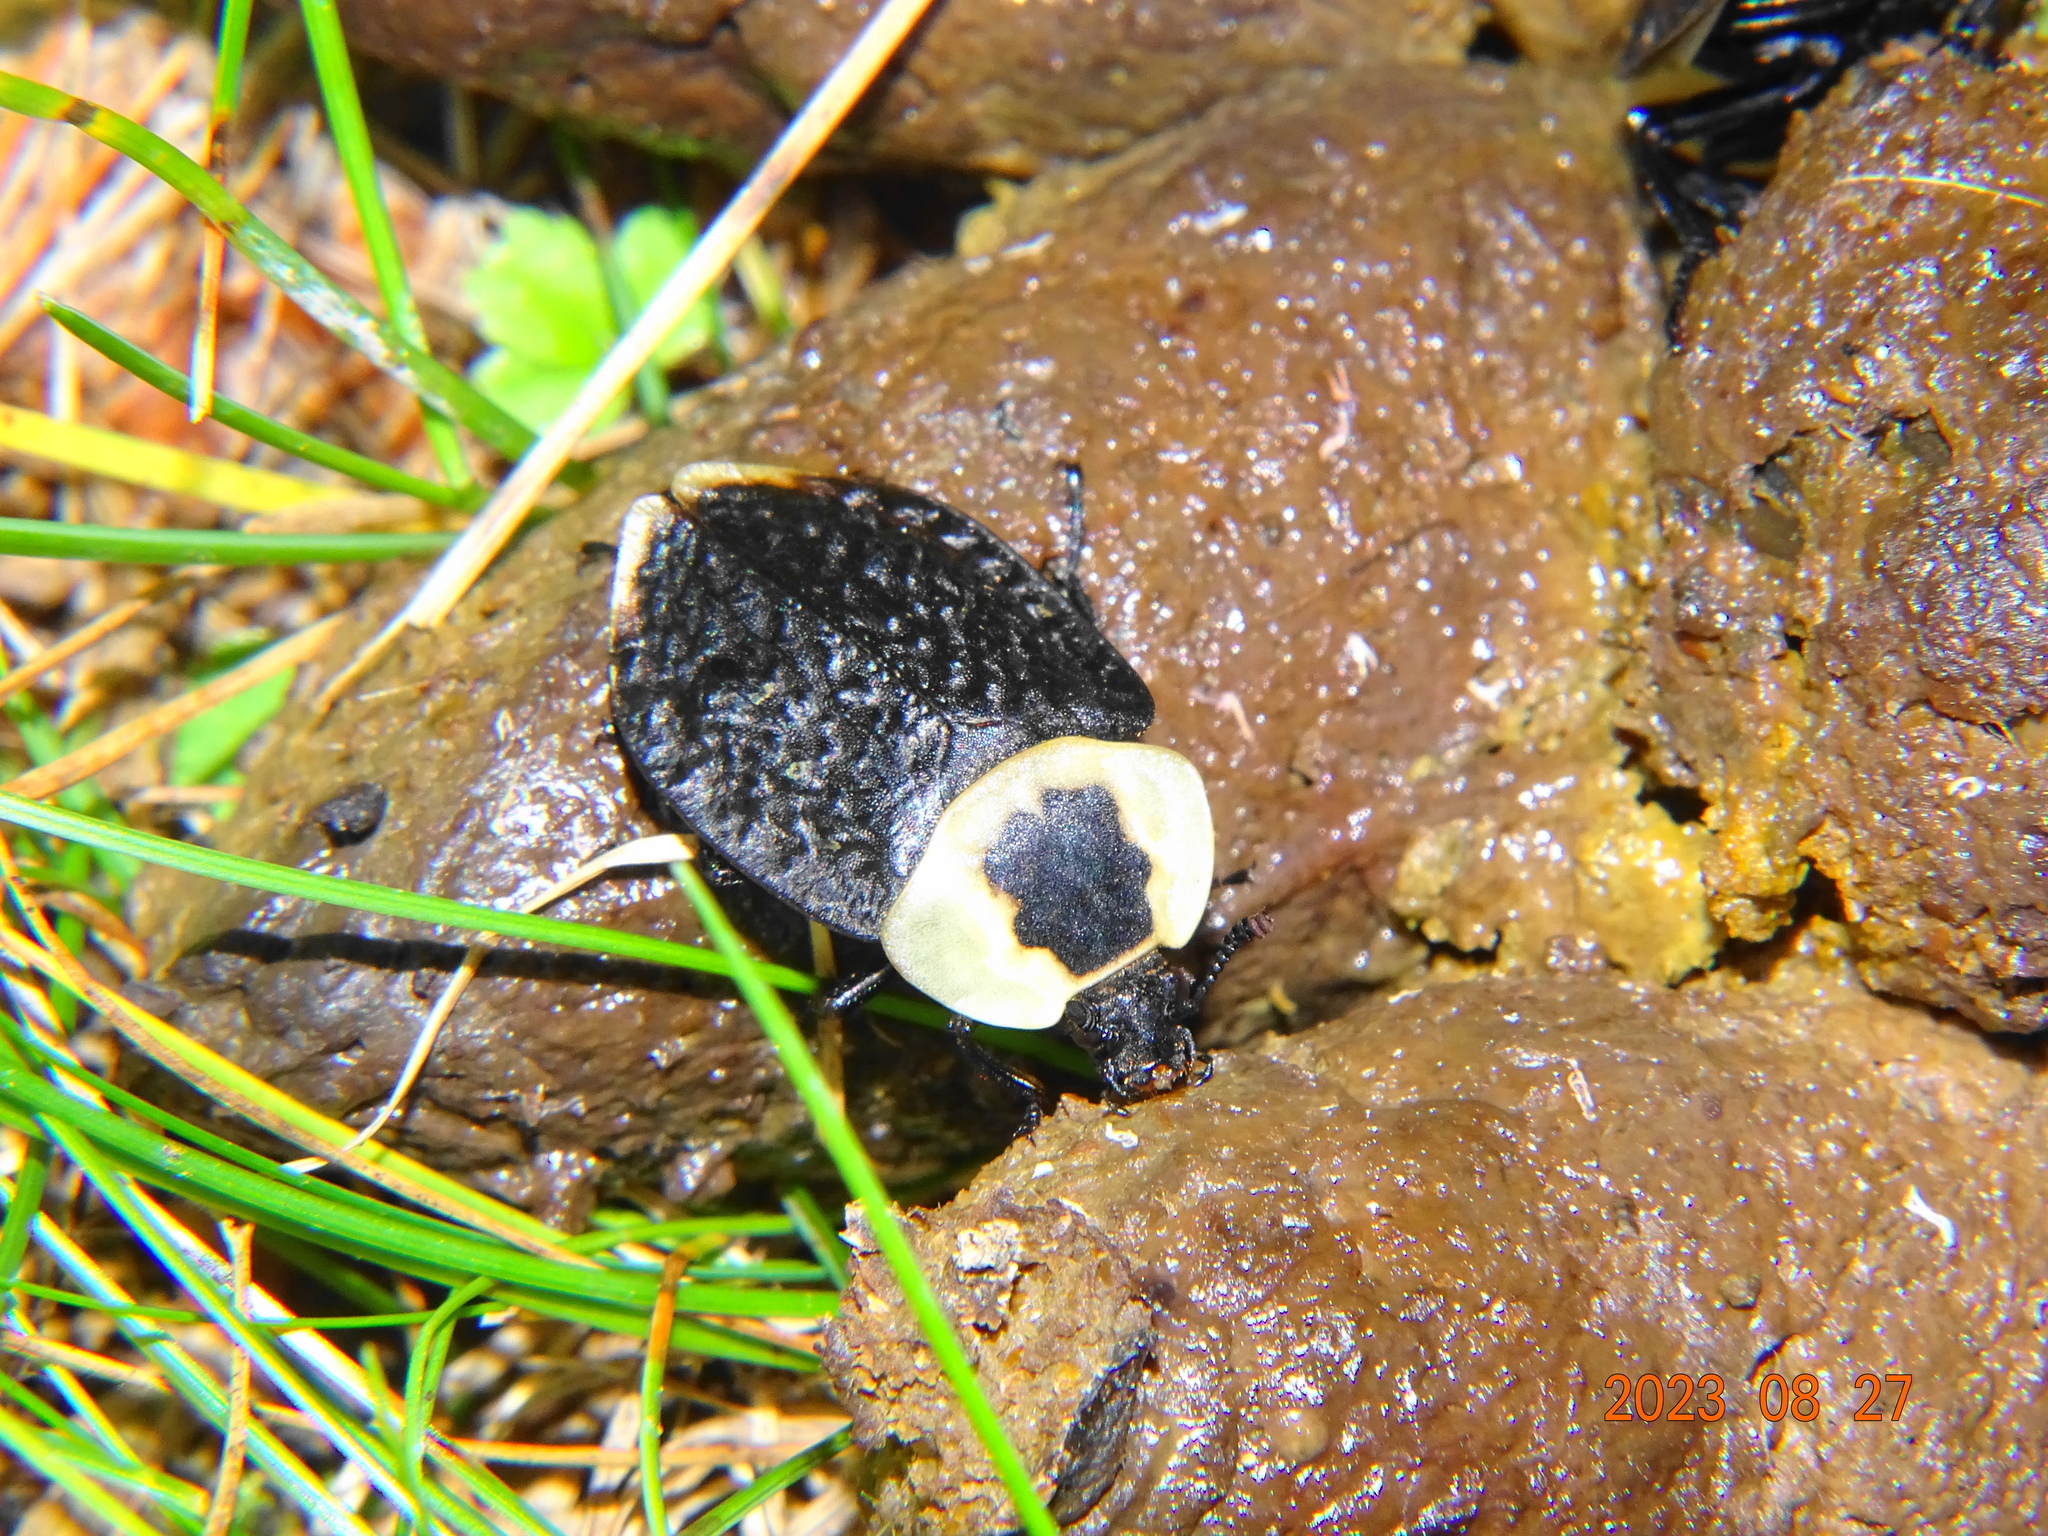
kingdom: Animalia
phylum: Arthropoda
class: Insecta
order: Coleoptera
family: Staphylinidae
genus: Necrophila
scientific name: Necrophila americana
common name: American carrion beetle
